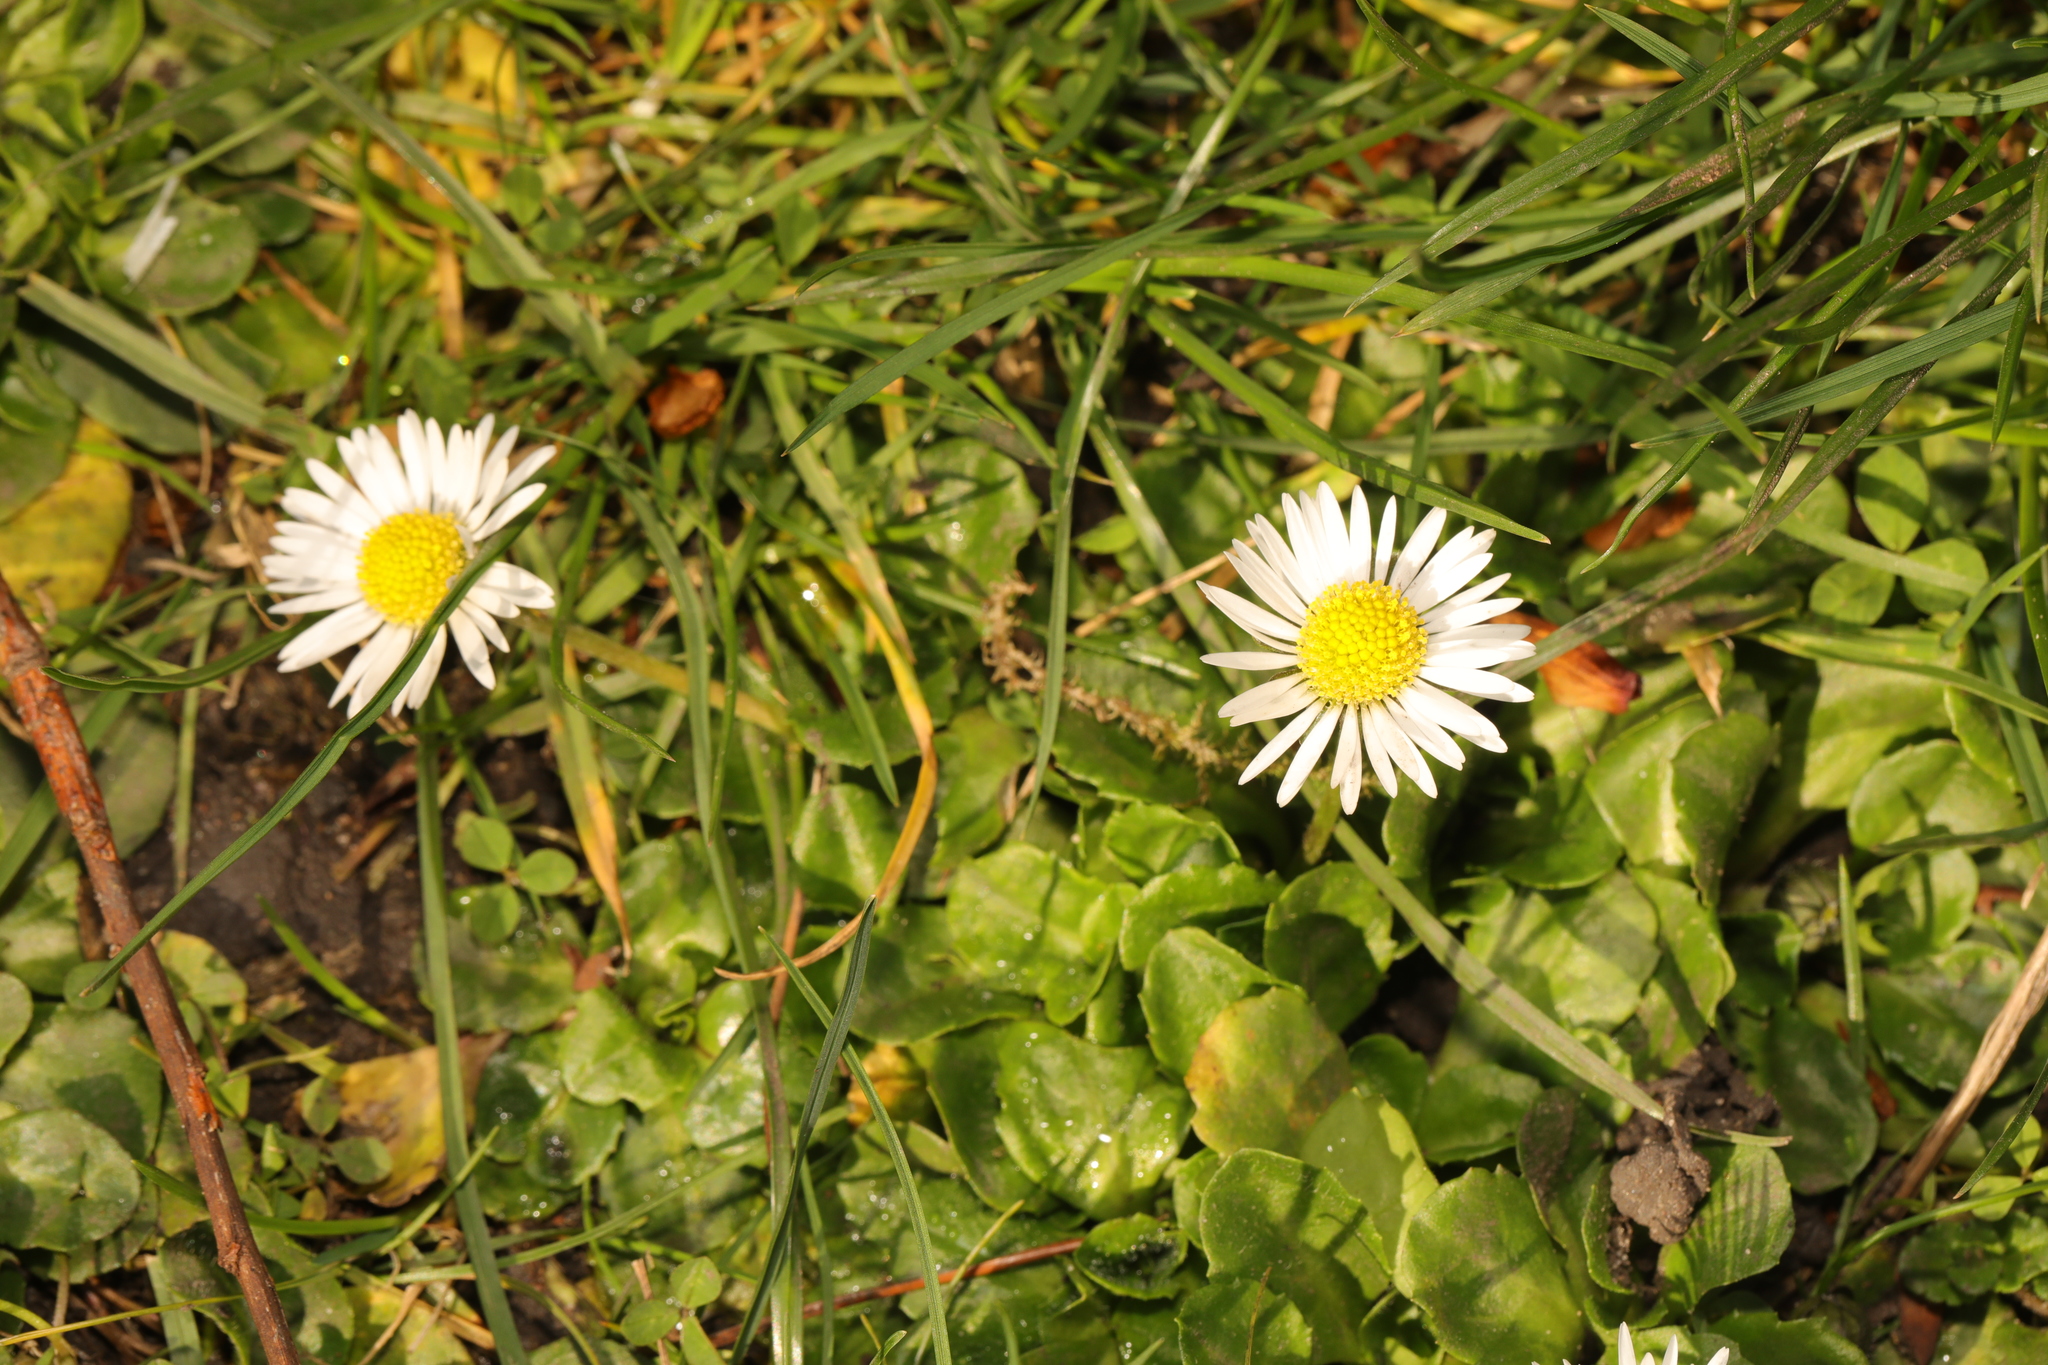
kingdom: Plantae
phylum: Tracheophyta
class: Magnoliopsida
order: Asterales
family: Asteraceae
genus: Bellis
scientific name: Bellis perennis
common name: Lawndaisy
